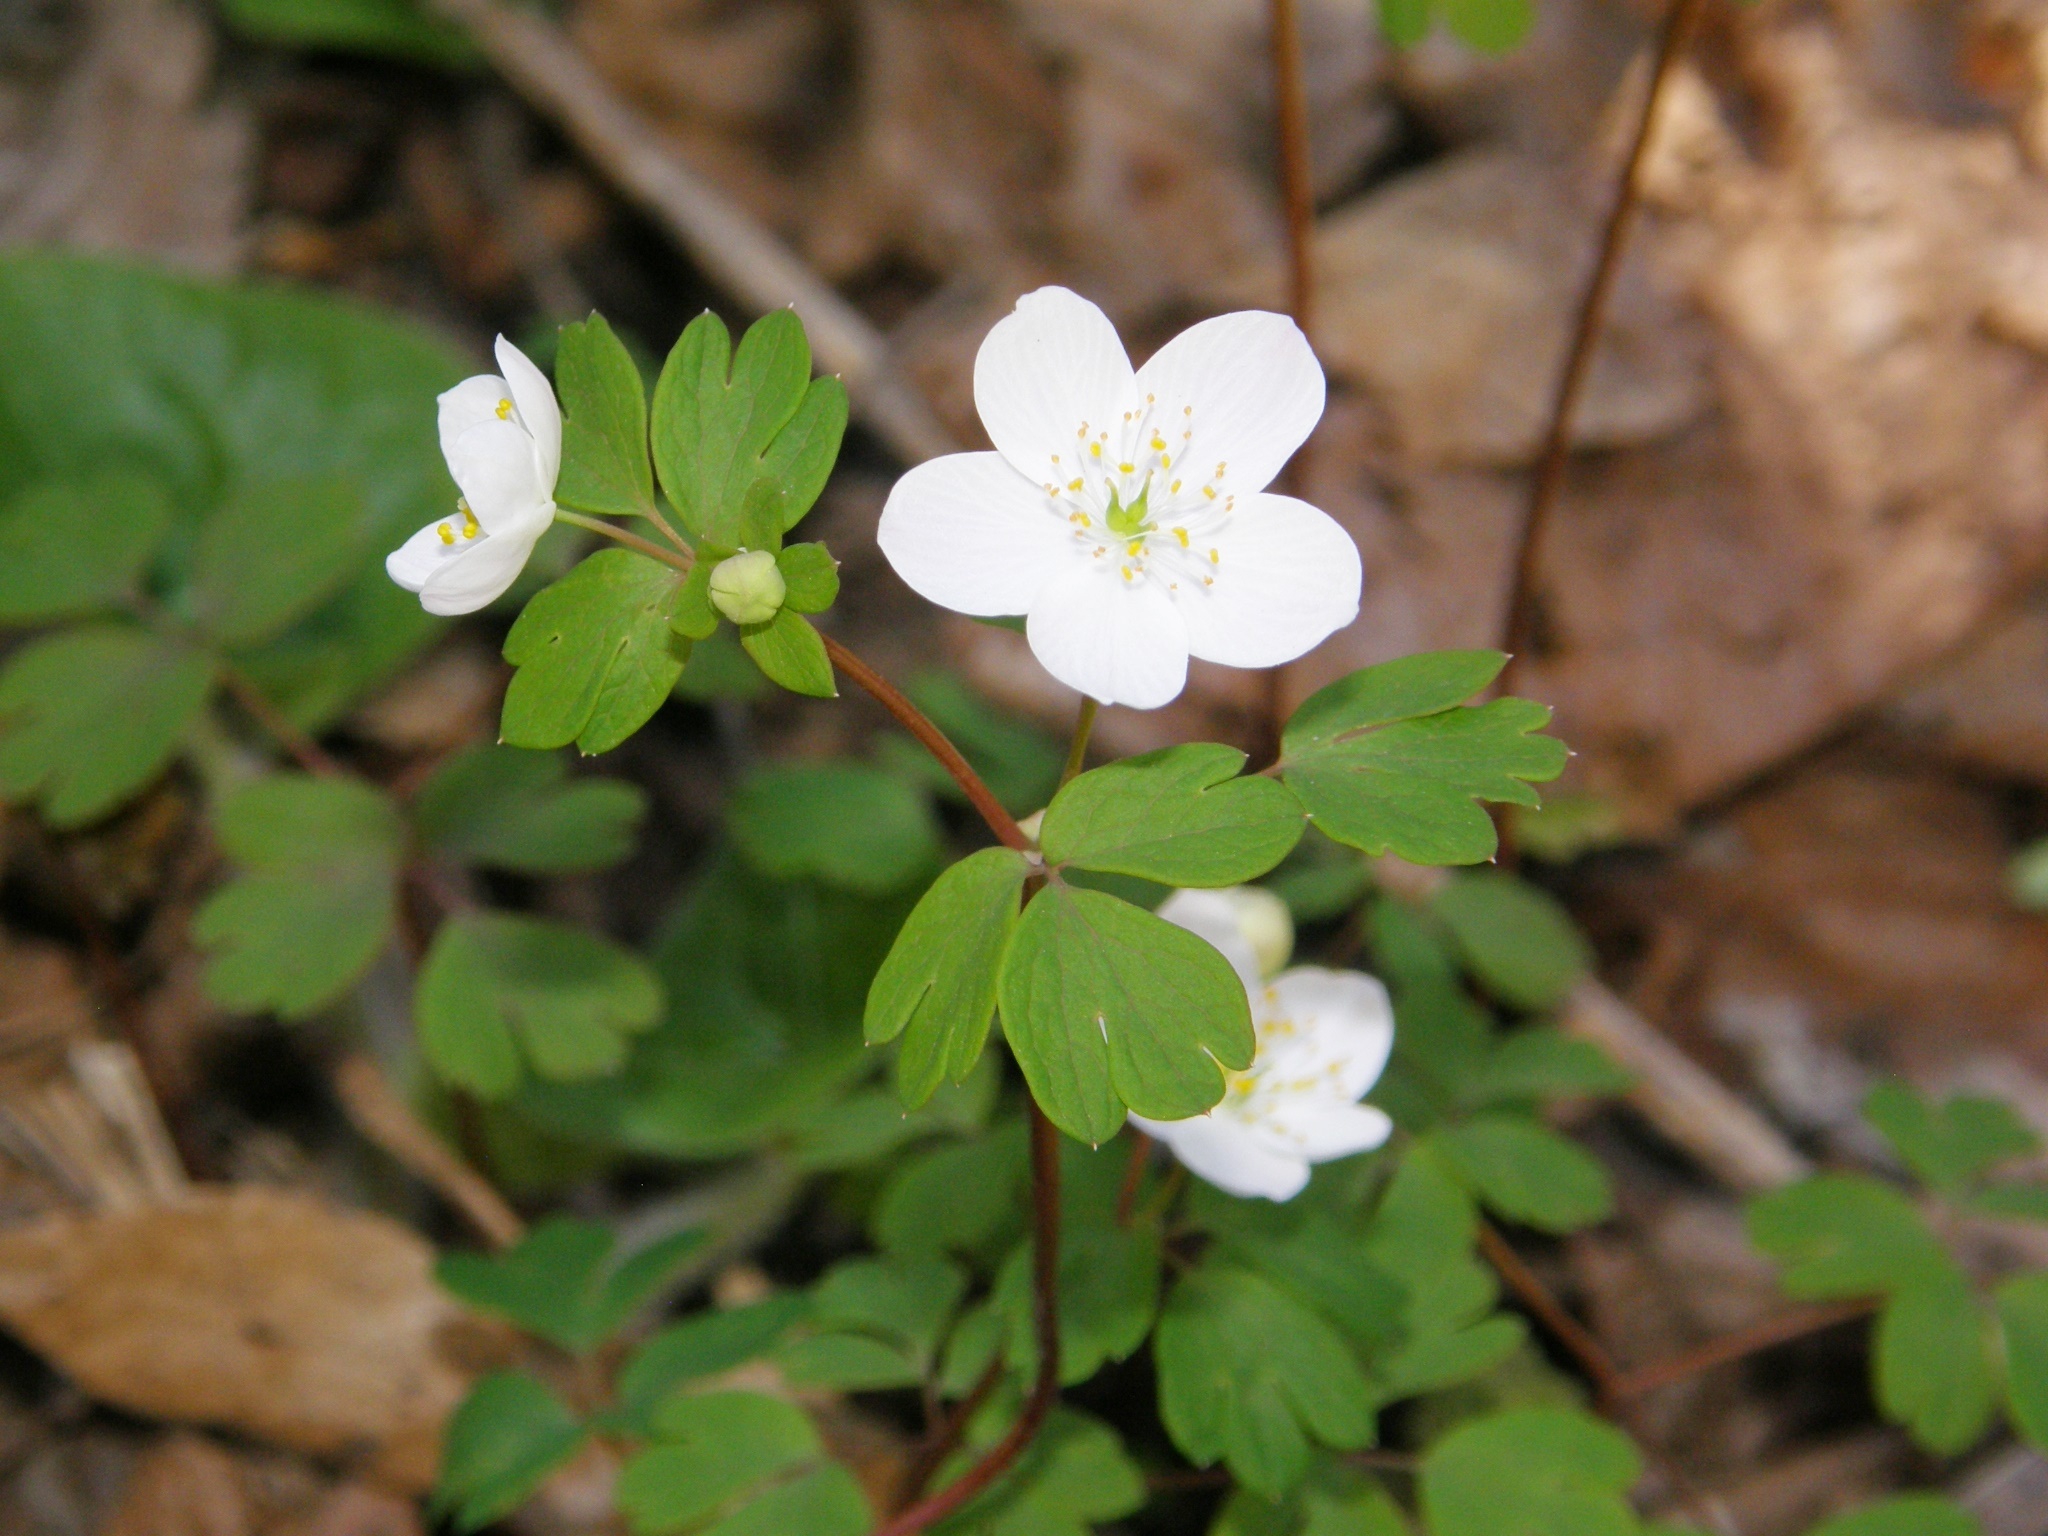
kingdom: Plantae
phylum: Tracheophyta
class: Magnoliopsida
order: Ranunculales
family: Ranunculaceae
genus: Enemion
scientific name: Enemion biternatum
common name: Eastern false rue-anemone
